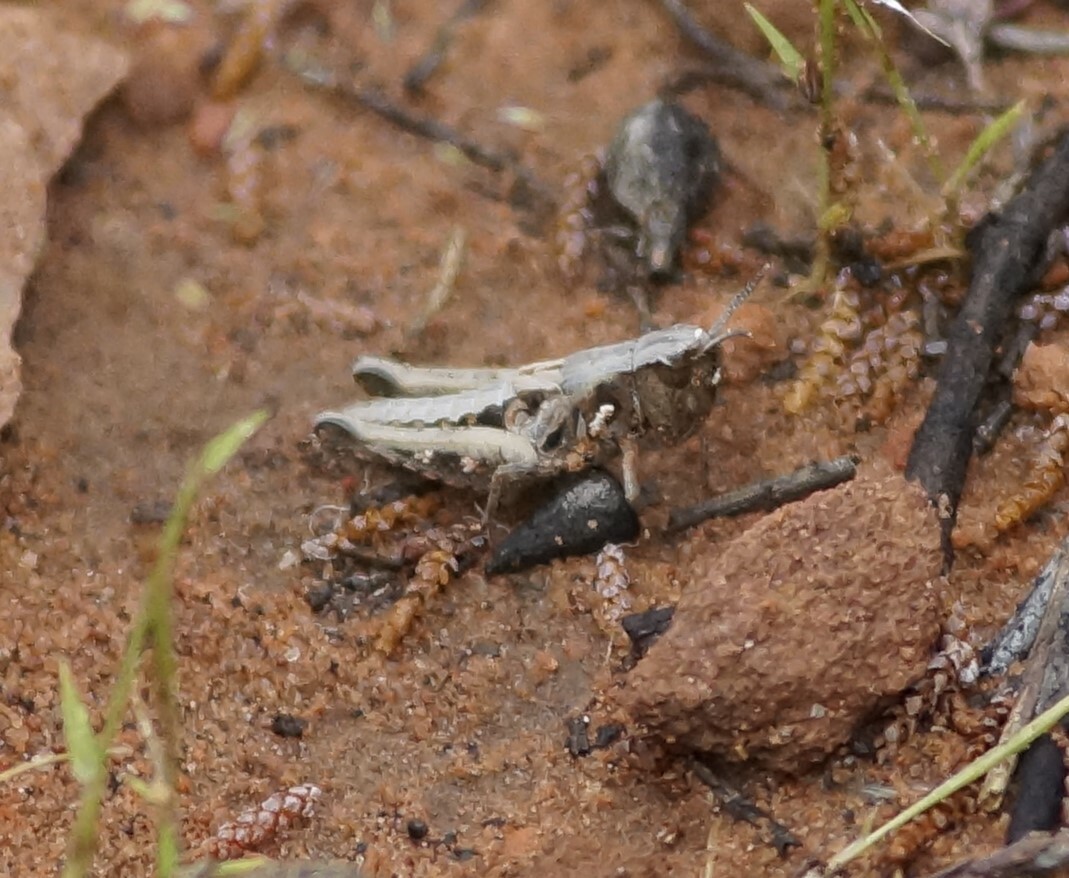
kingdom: Animalia
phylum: Arthropoda
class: Insecta
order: Orthoptera
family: Acrididae
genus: Azelota
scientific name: Azelota
